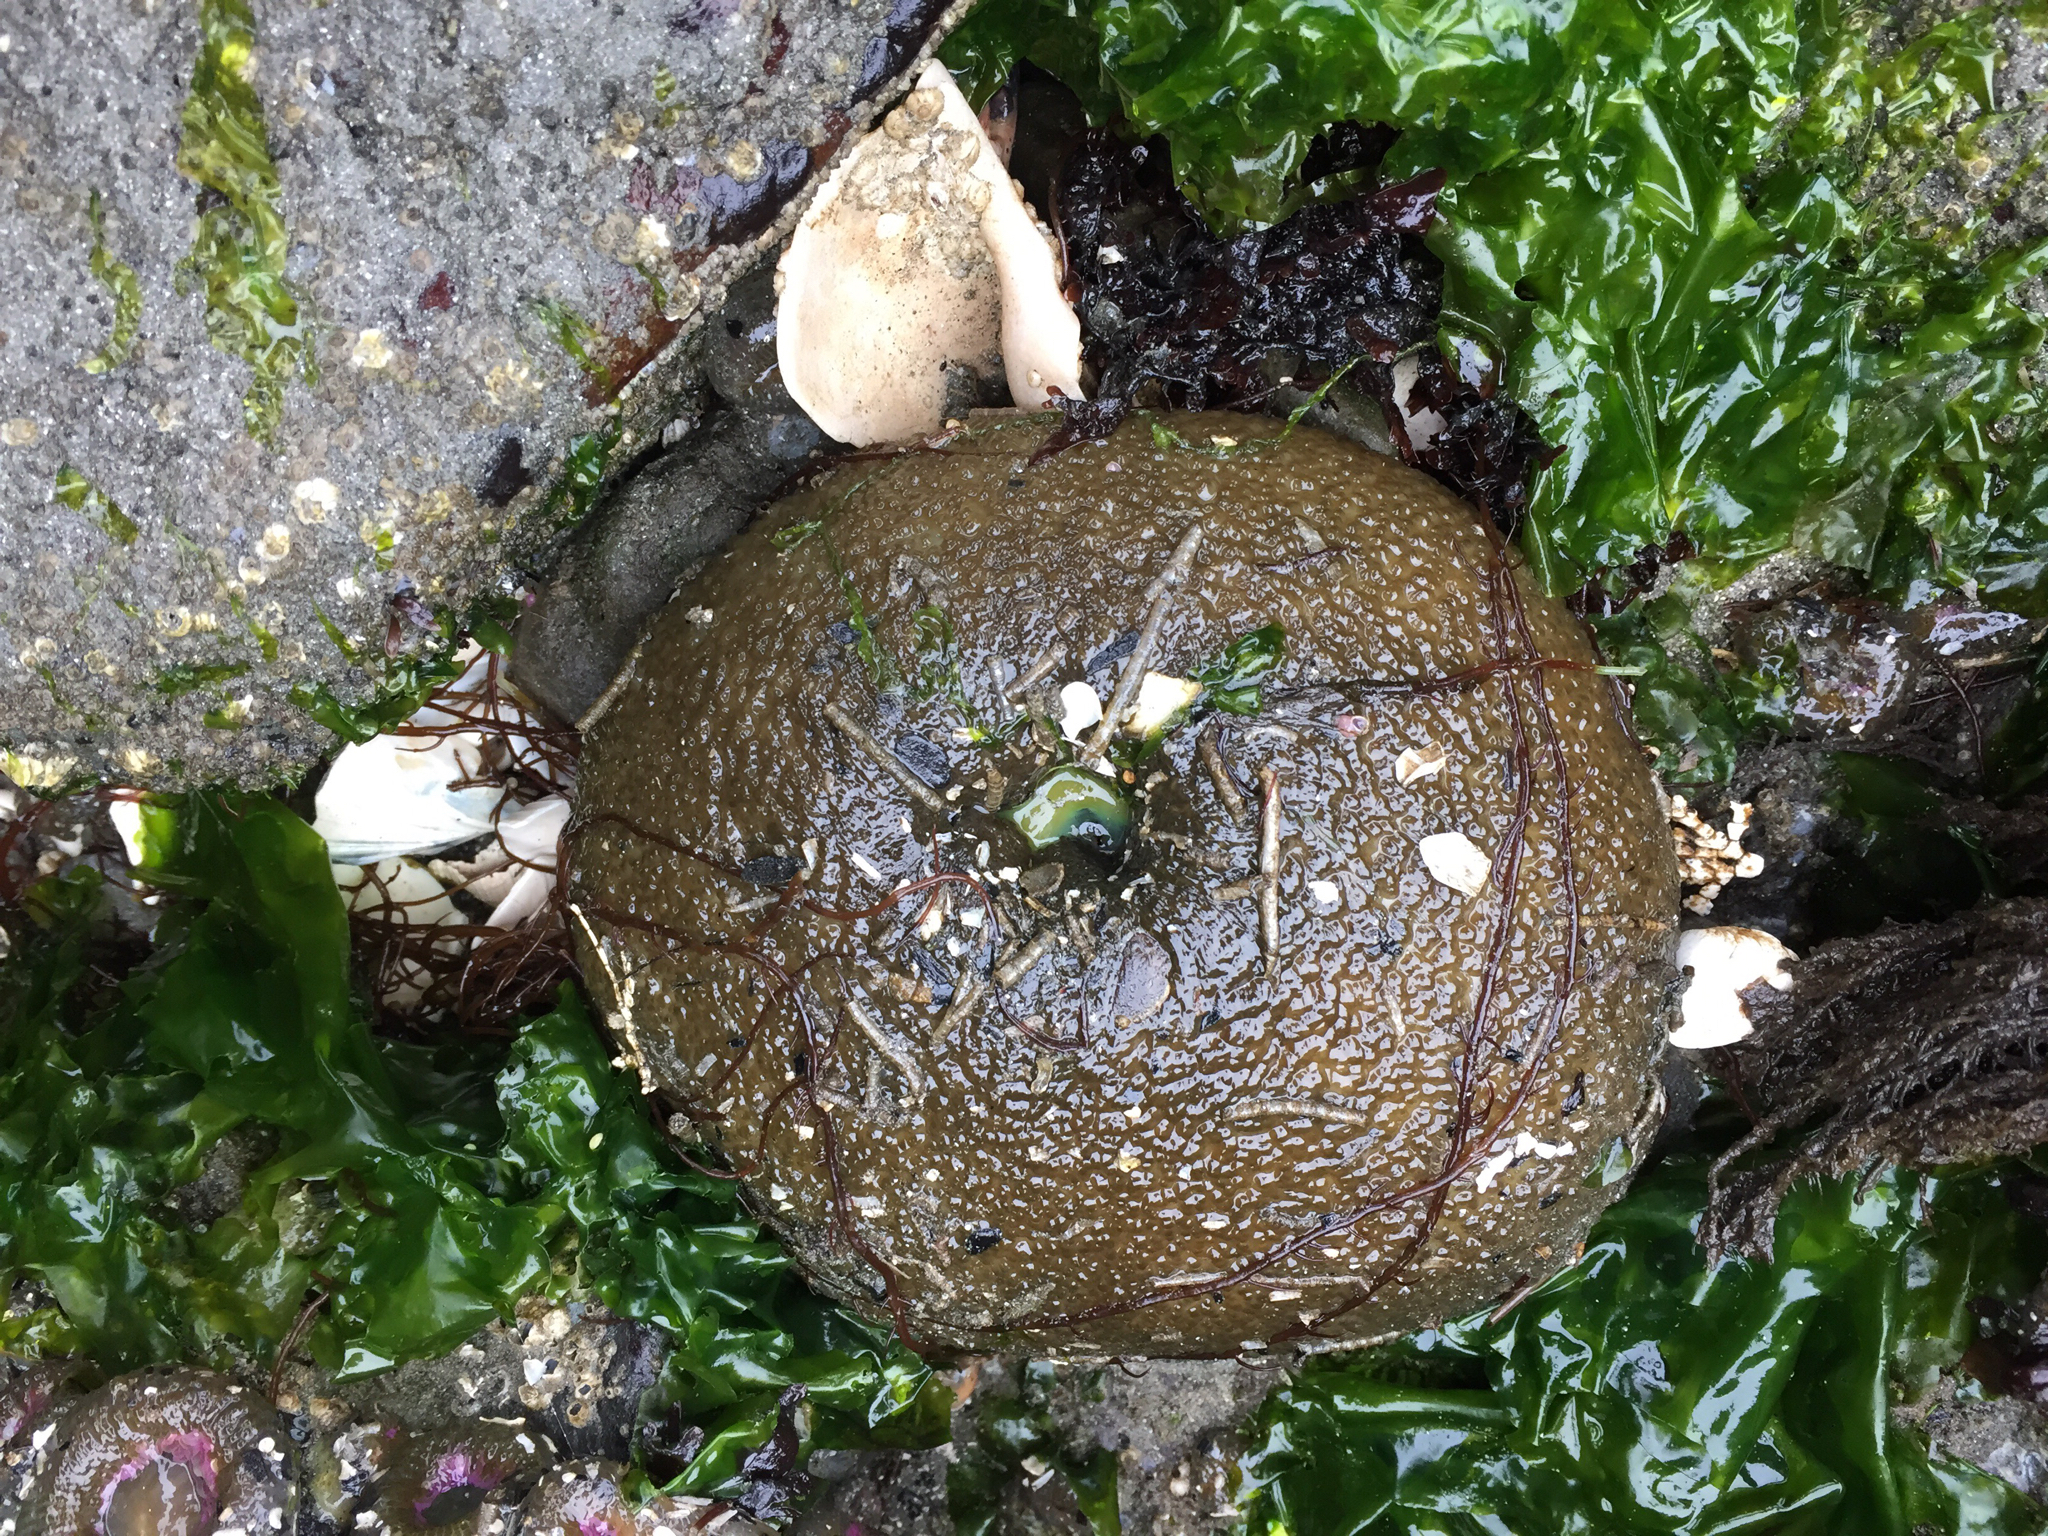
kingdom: Animalia
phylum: Cnidaria
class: Anthozoa
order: Actiniaria
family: Actiniidae
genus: Anthopleura
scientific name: Anthopleura xanthogrammica
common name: Giant green anemone
